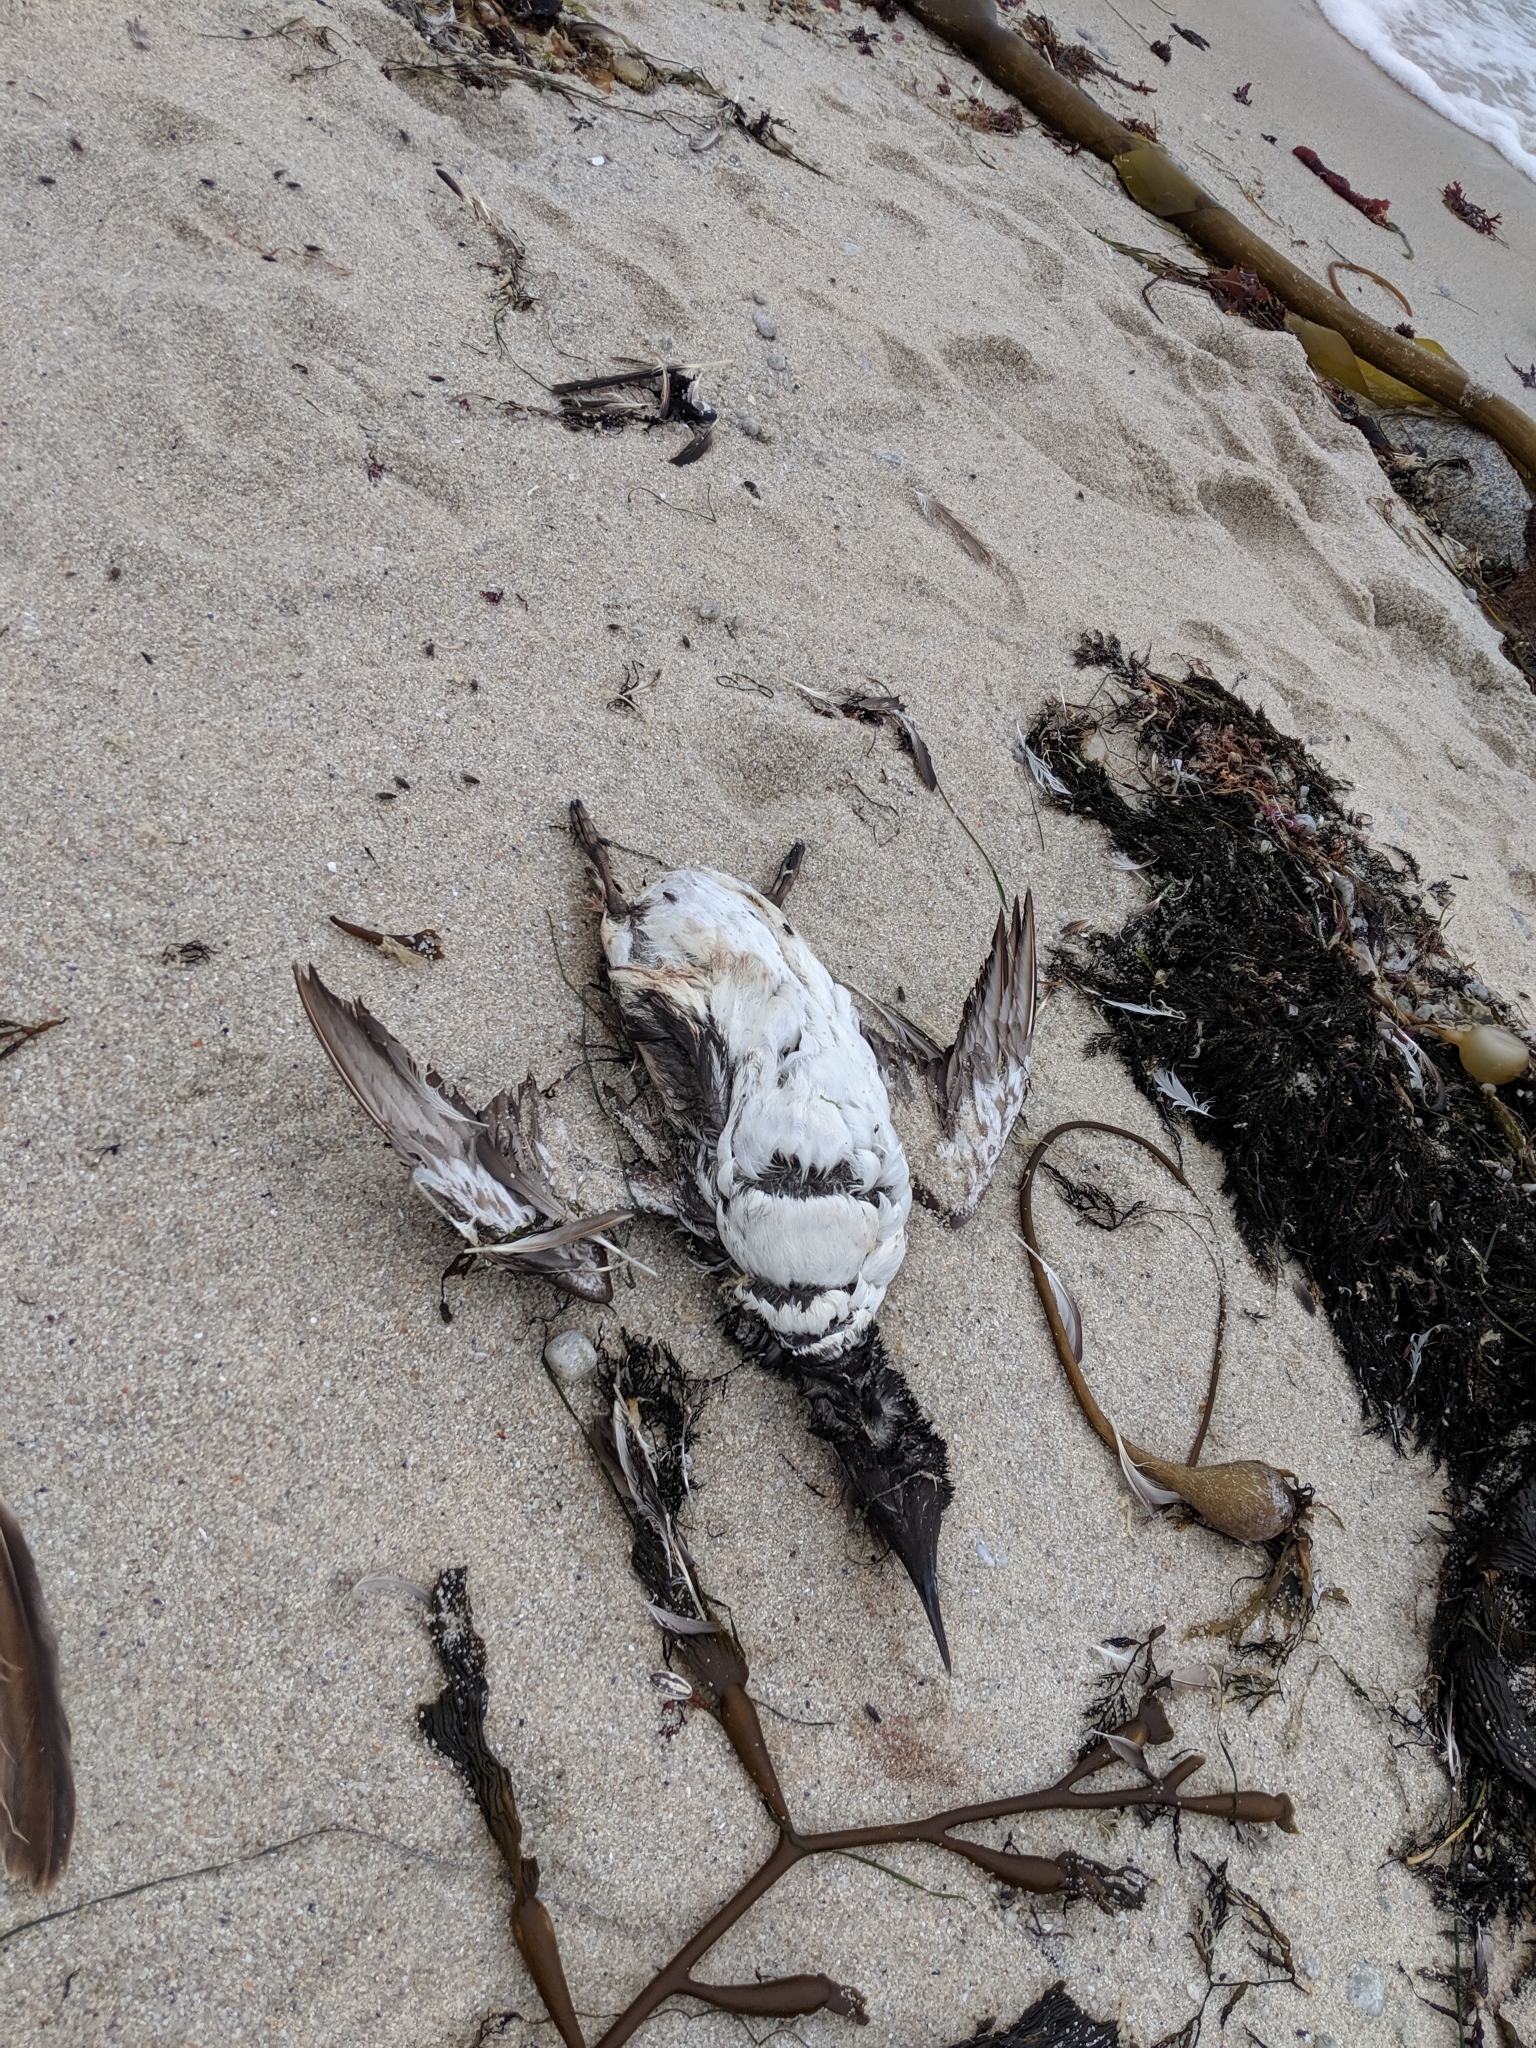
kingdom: Animalia
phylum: Chordata
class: Aves
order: Charadriiformes
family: Alcidae
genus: Uria
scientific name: Uria aalge
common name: Common murre
